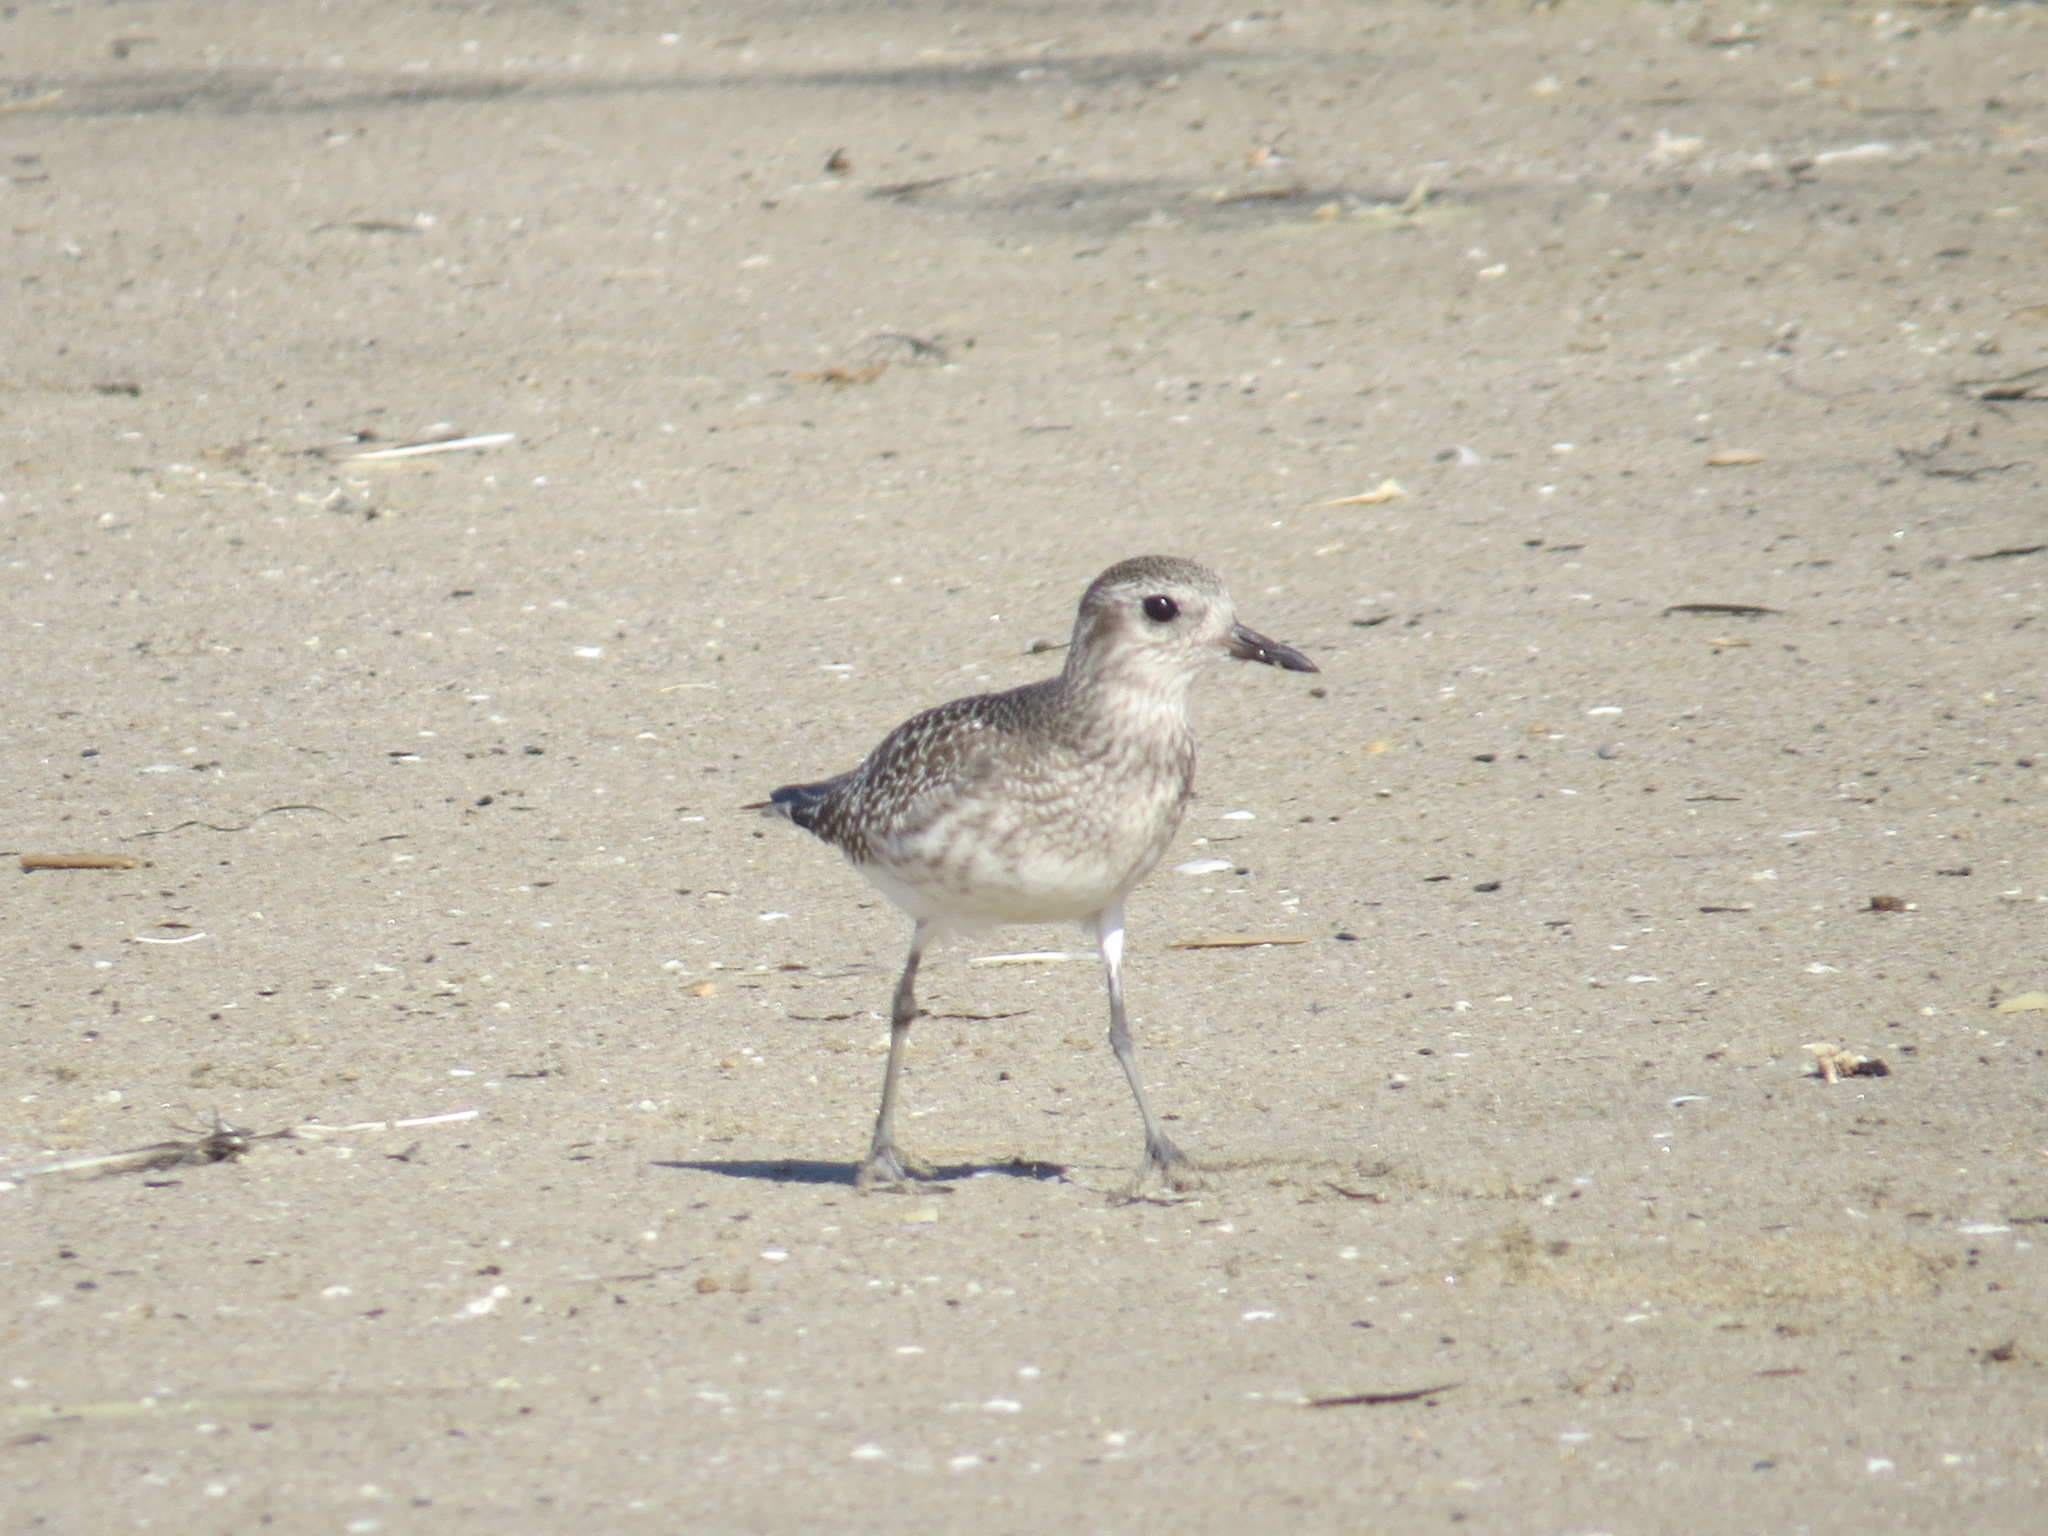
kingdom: Animalia
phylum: Chordata
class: Aves
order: Charadriiformes
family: Charadriidae
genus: Pluvialis
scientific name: Pluvialis squatarola
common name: Grey plover
